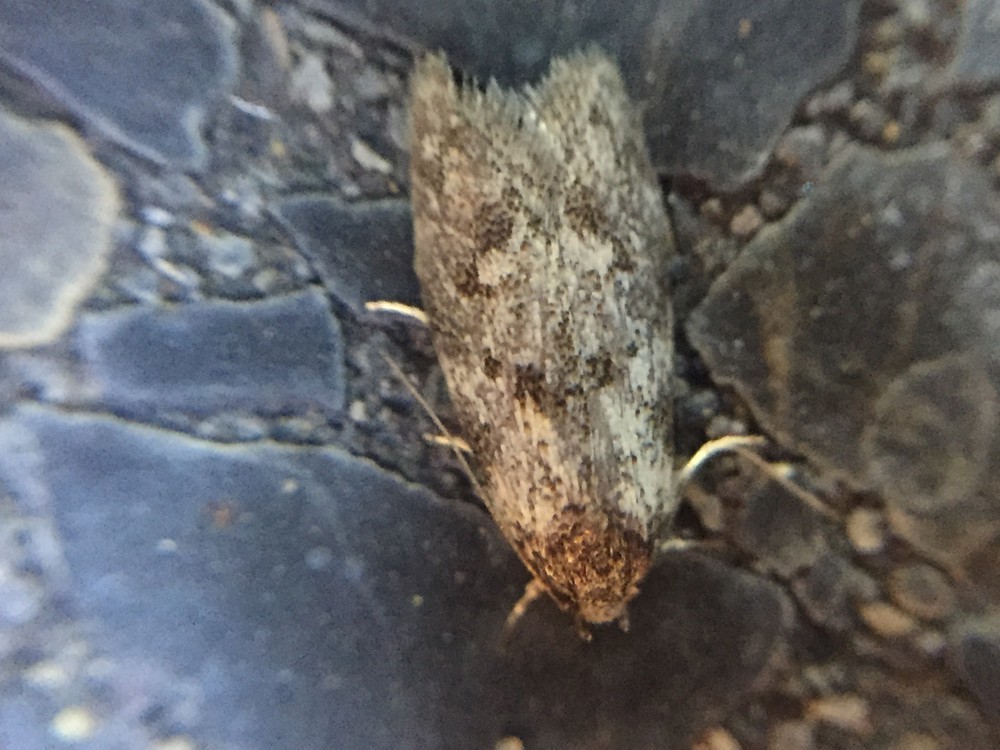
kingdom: Animalia
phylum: Arthropoda
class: Insecta
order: Lepidoptera
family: Oecophoridae
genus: Tingena
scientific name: Tingena clarkei
